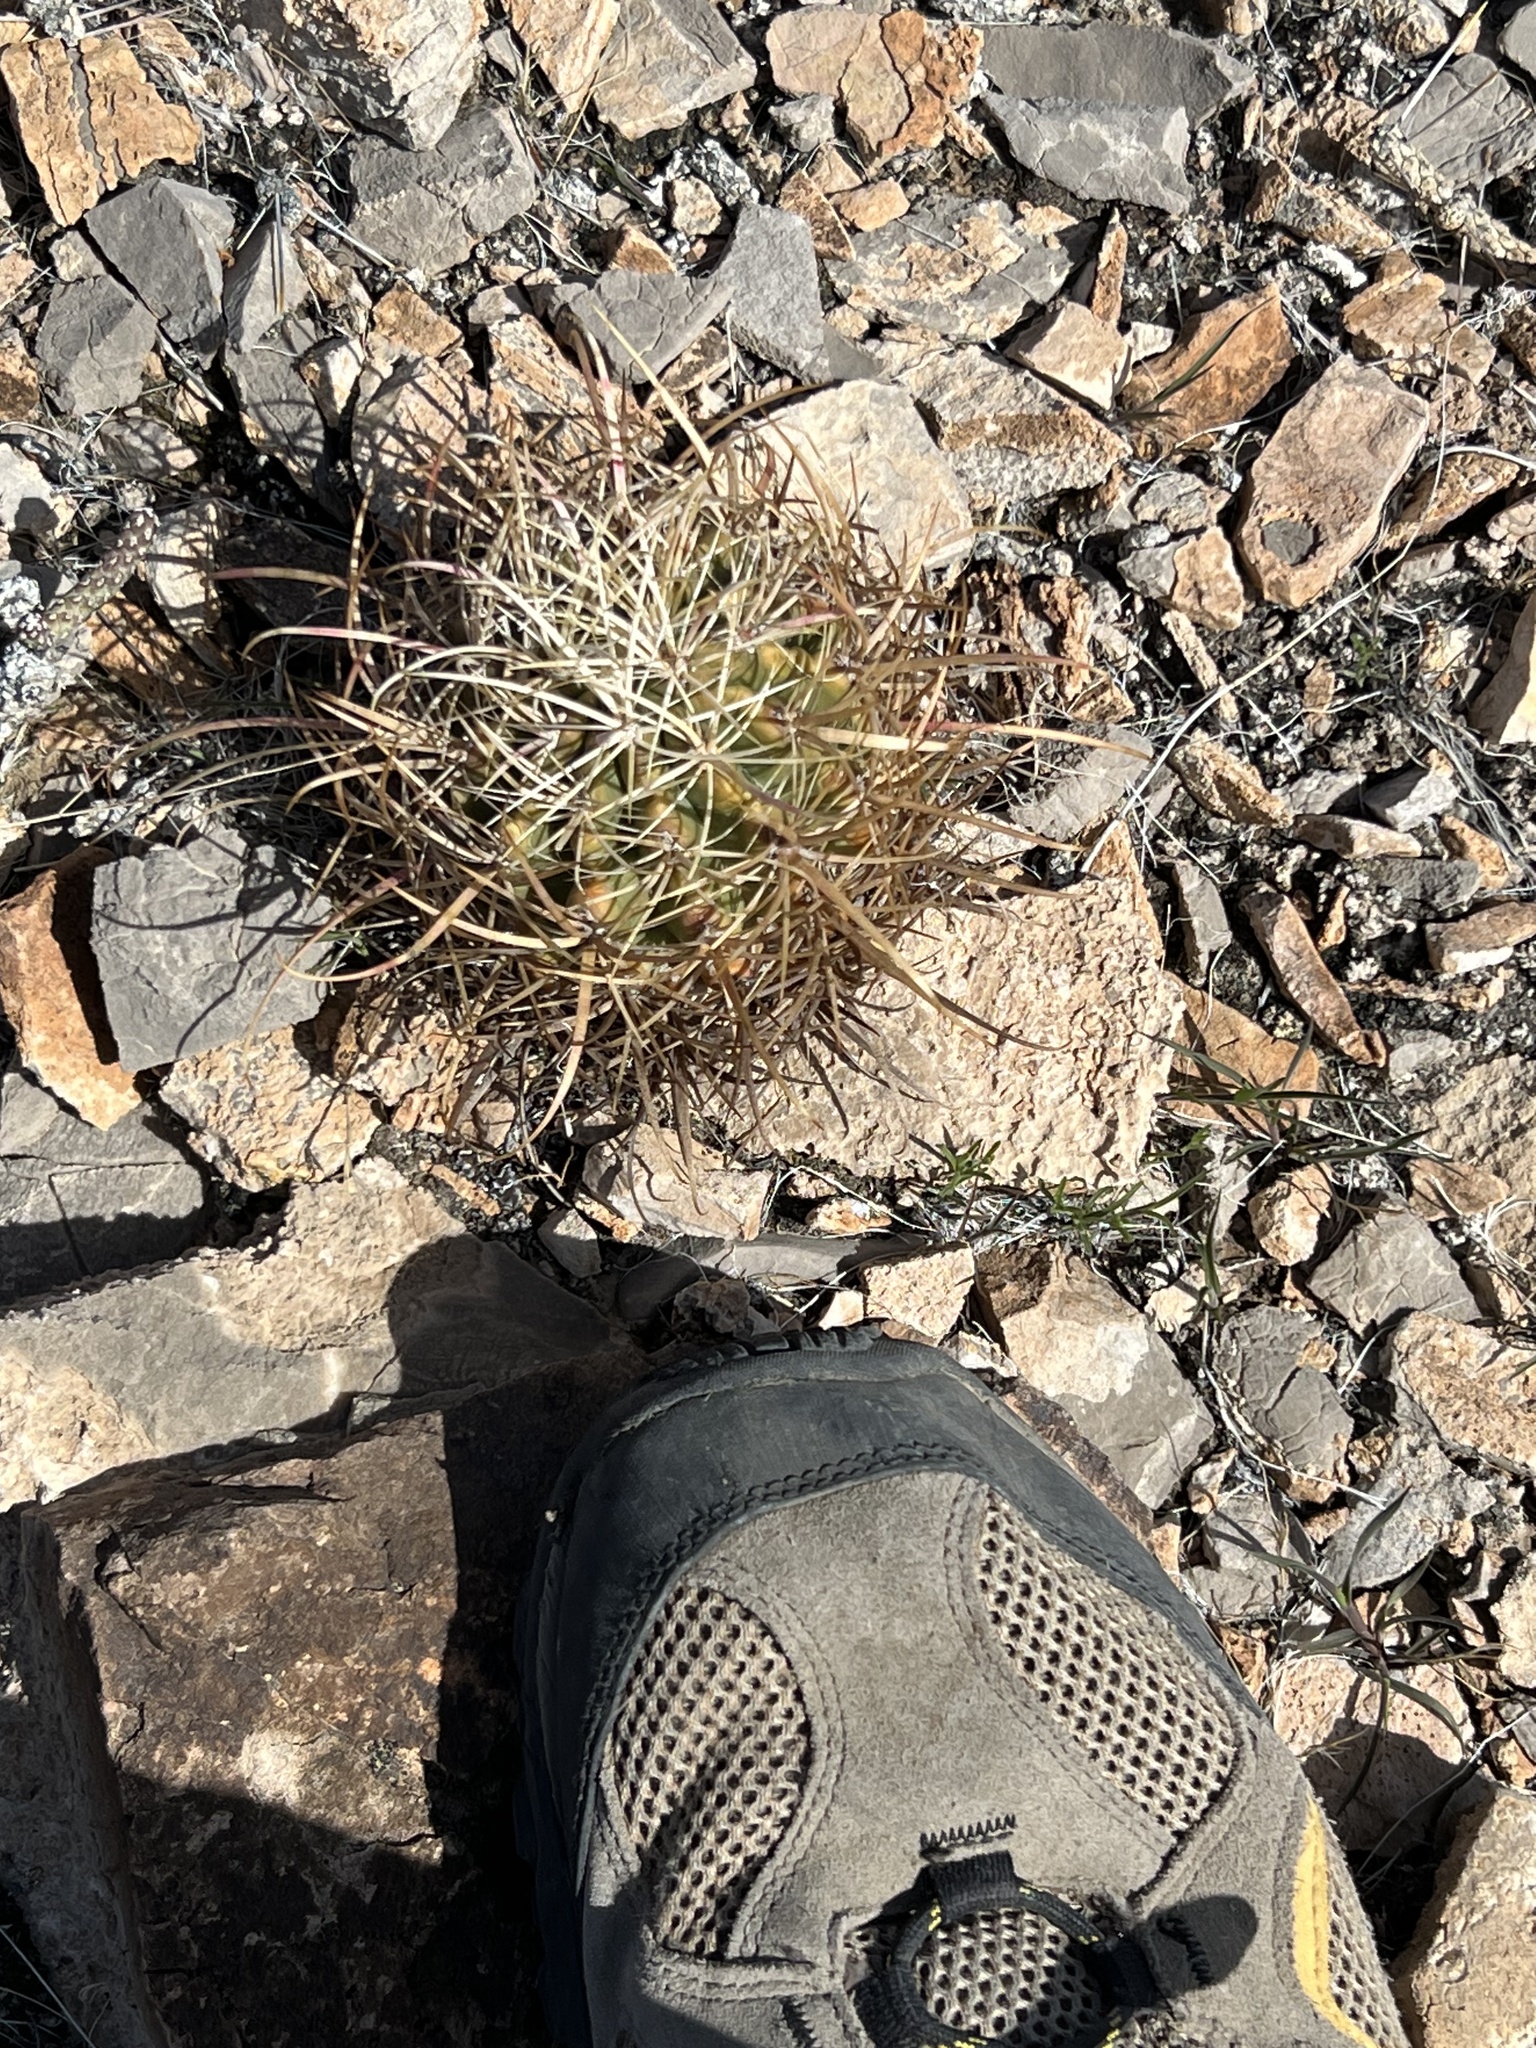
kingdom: Plantae
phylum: Tracheophyta
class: Magnoliopsida
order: Caryophyllales
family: Cactaceae
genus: Ferocactus
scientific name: Ferocactus cylindraceus
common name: California barrel cactus
